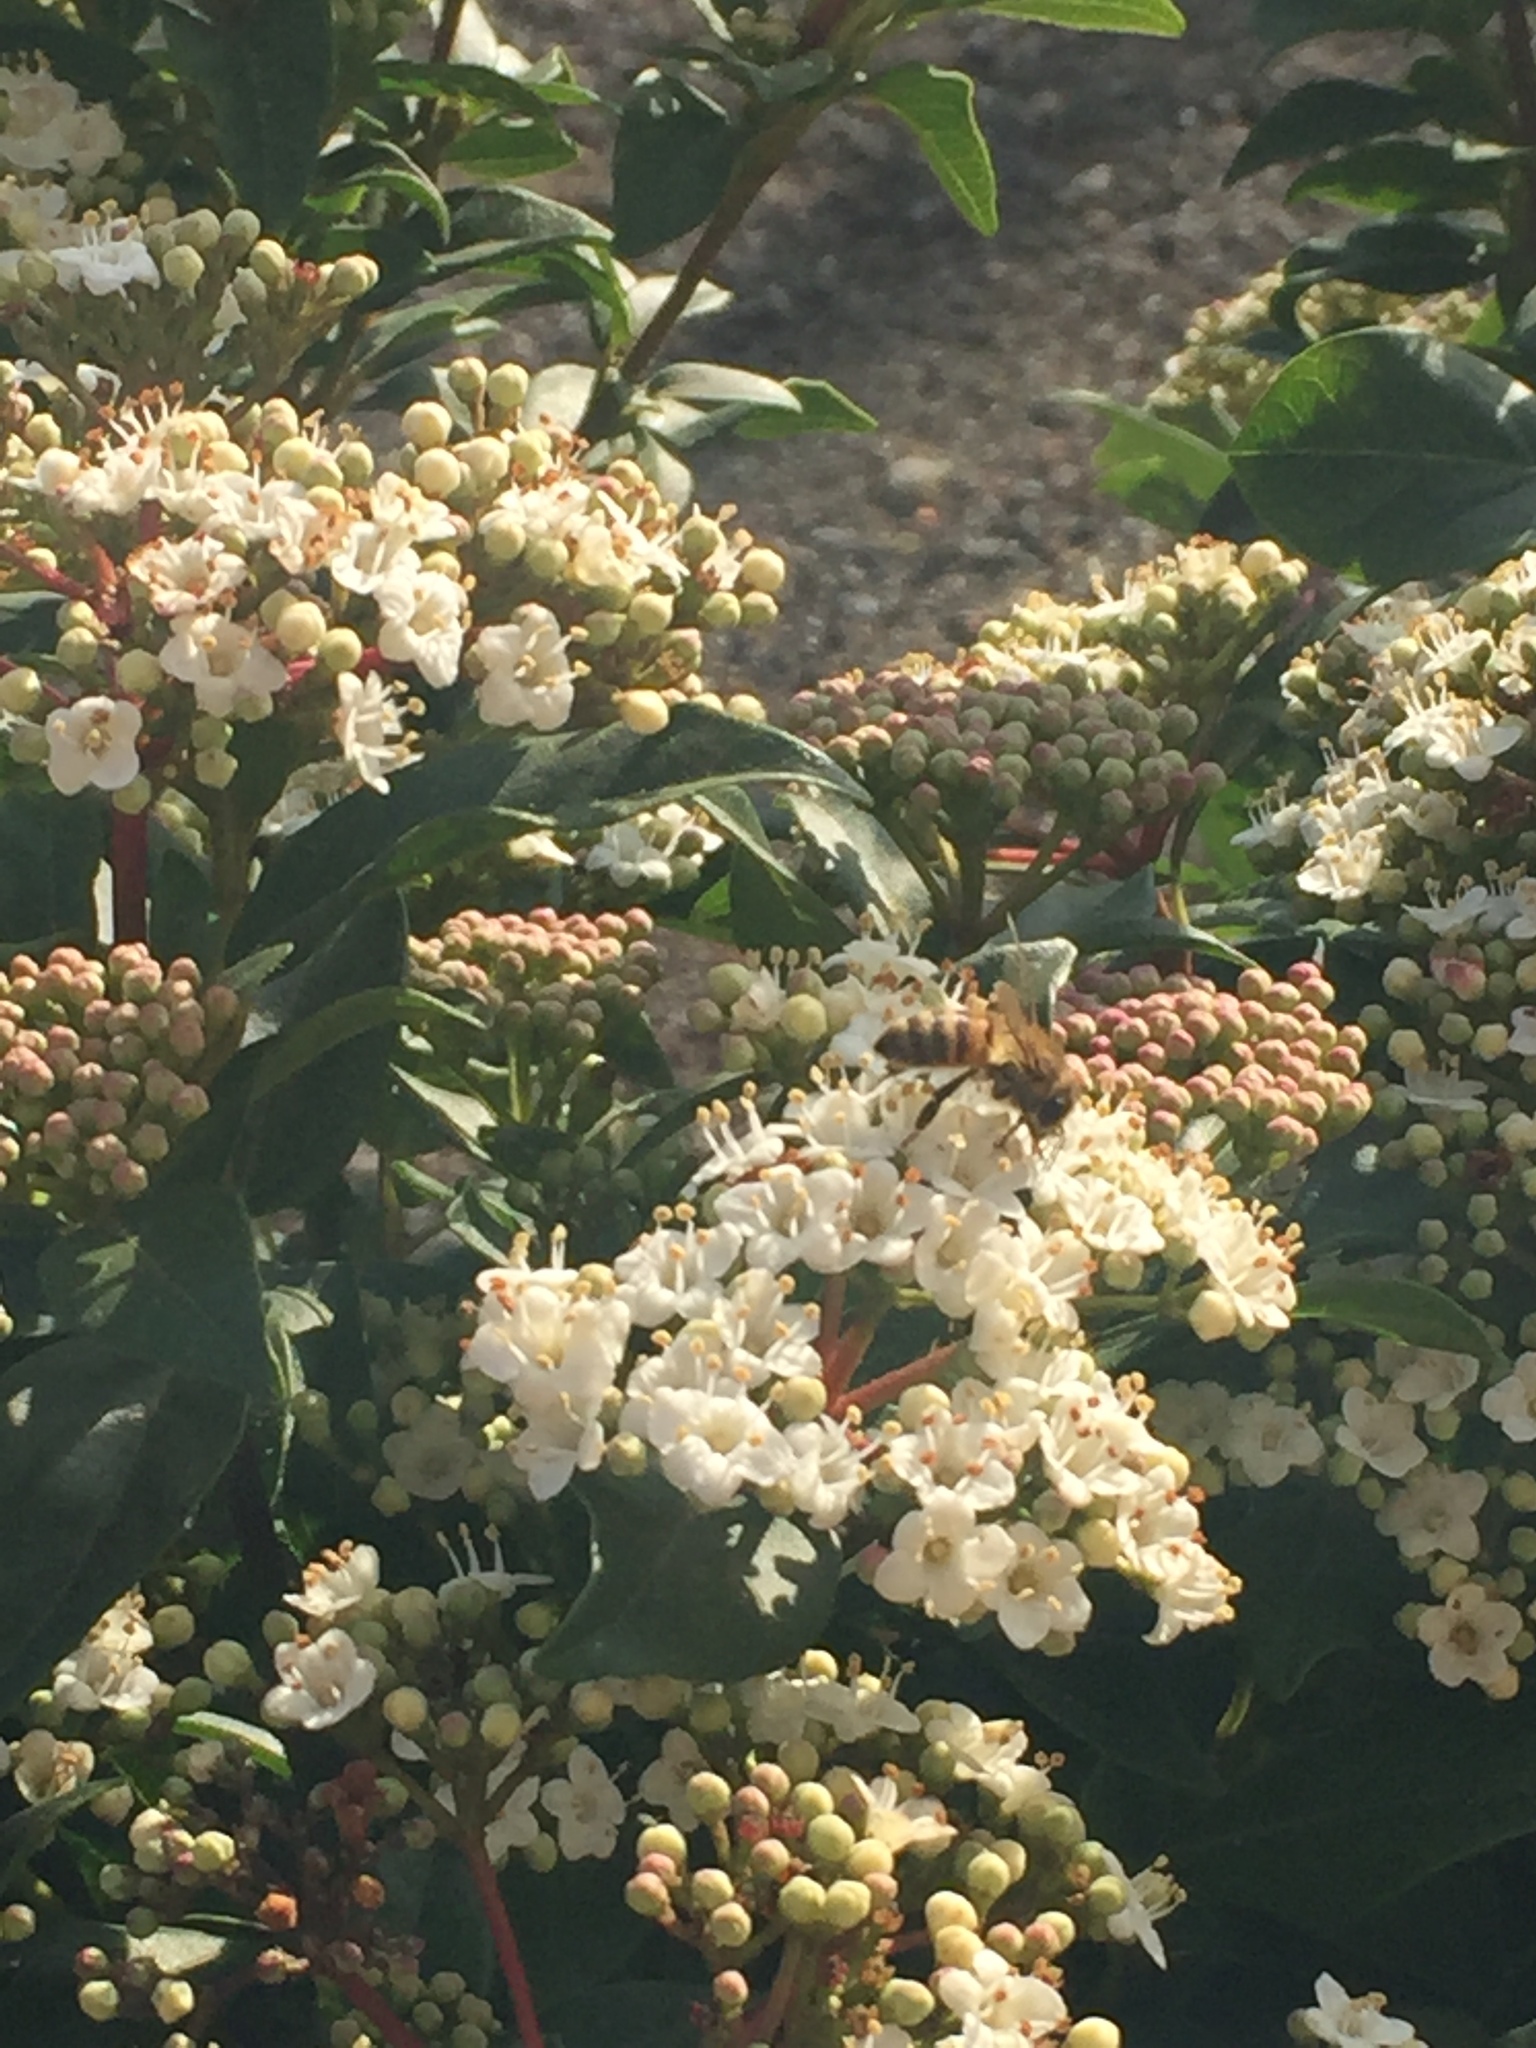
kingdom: Animalia
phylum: Arthropoda
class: Insecta
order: Hymenoptera
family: Apidae
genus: Apis
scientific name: Apis mellifera
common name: Honey bee
